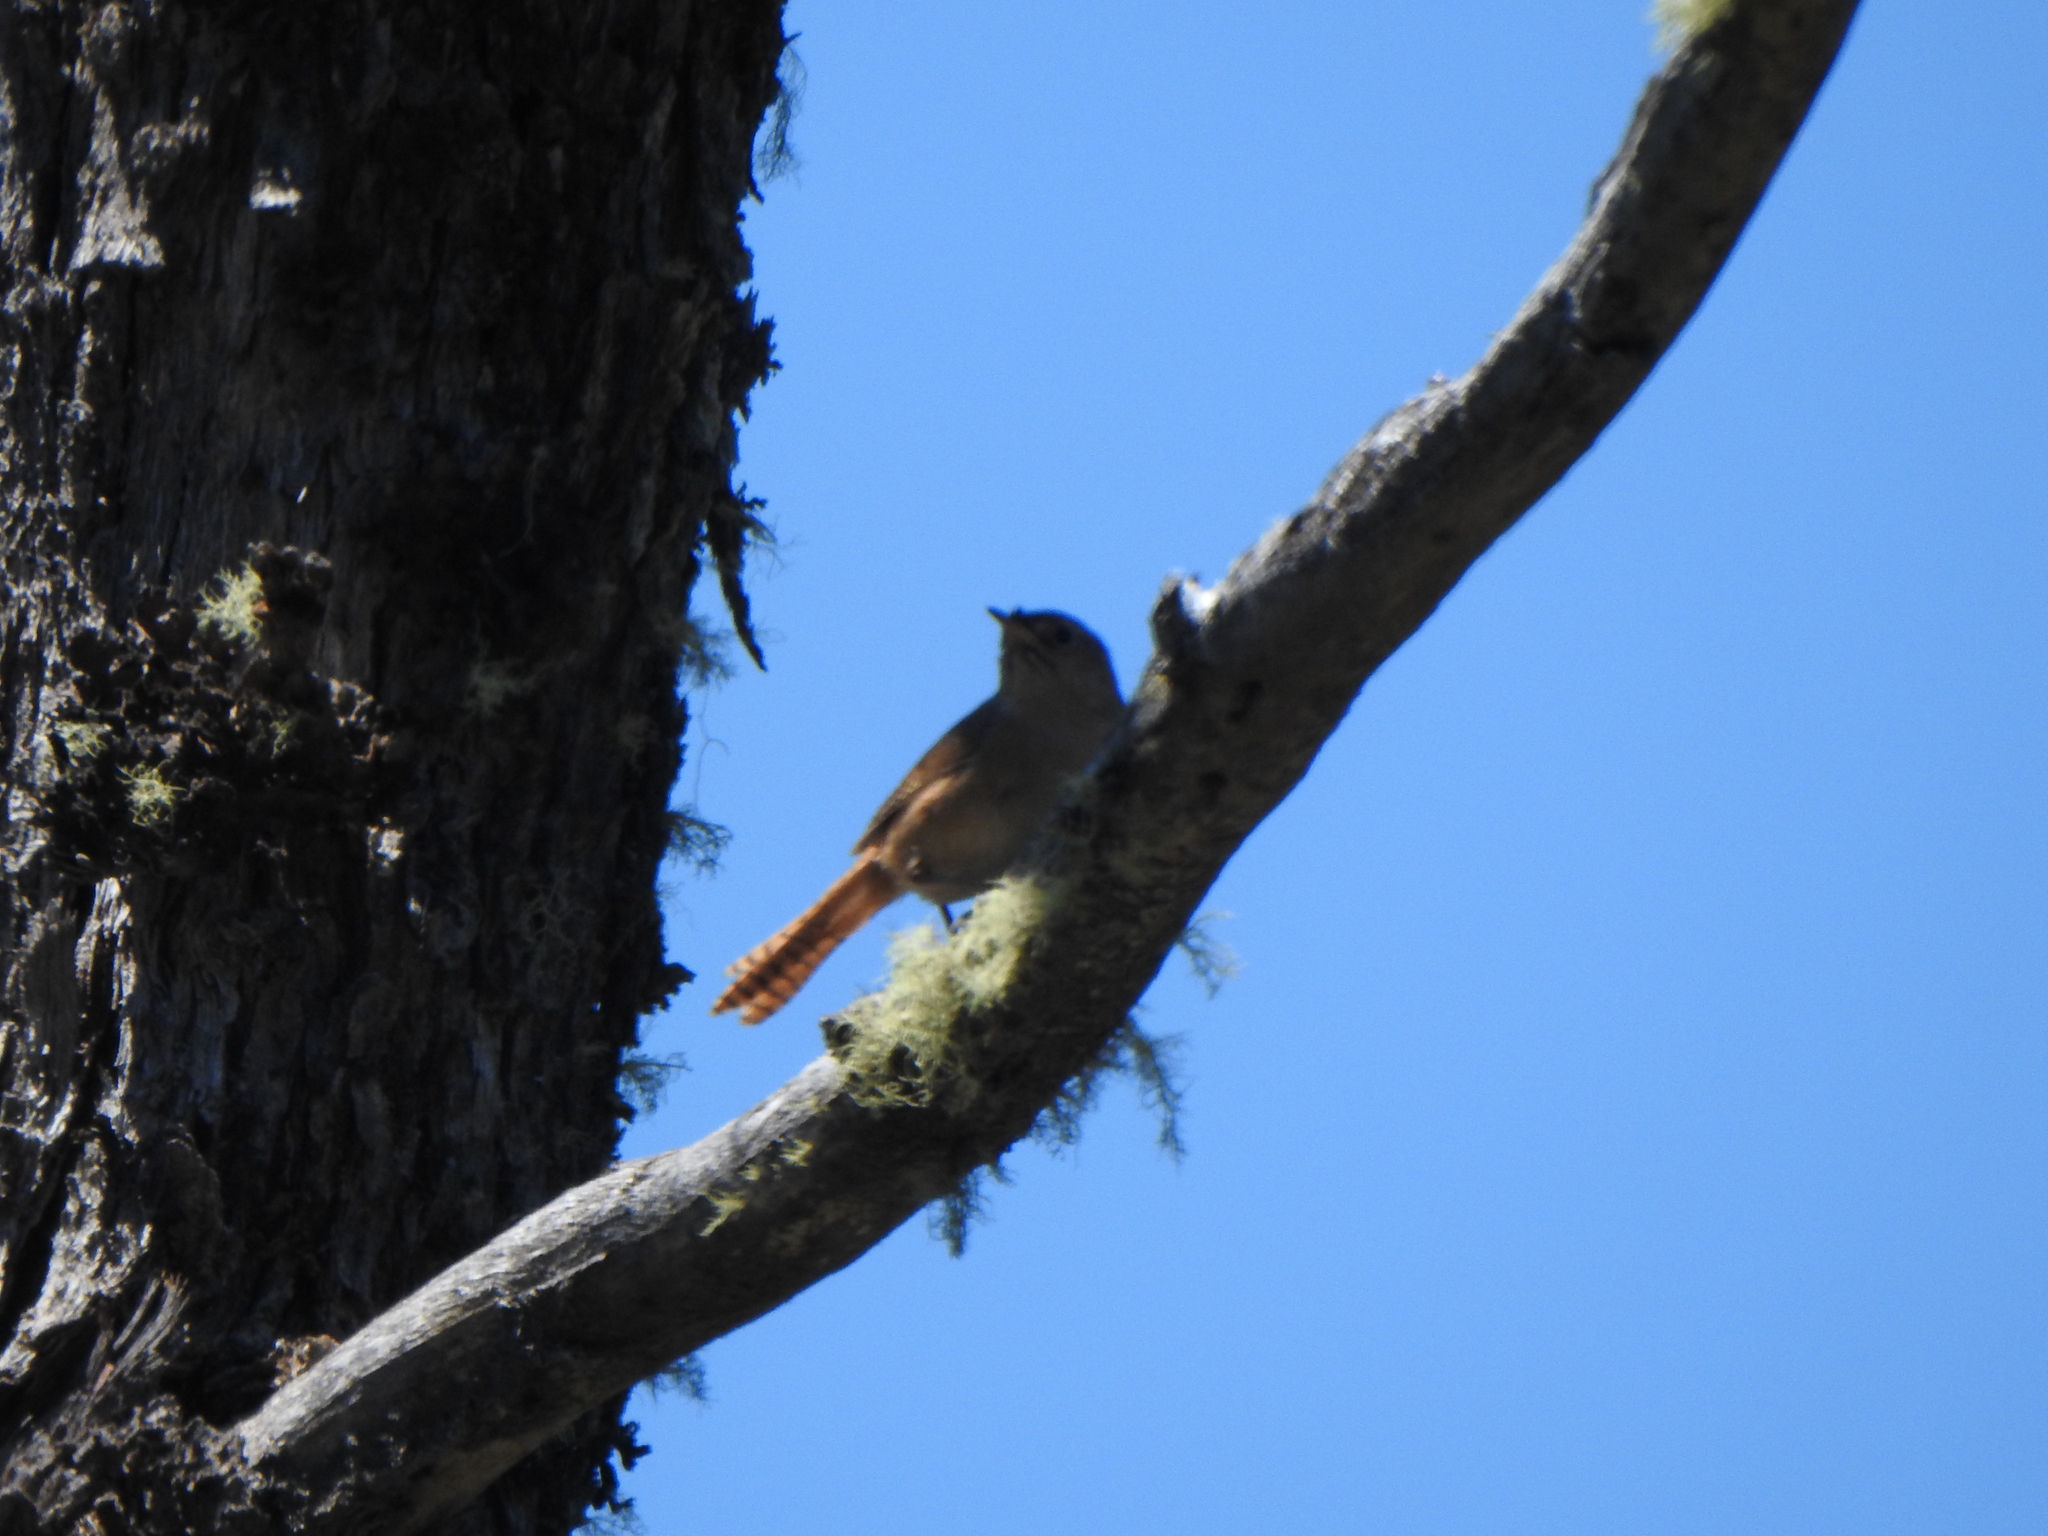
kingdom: Animalia
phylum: Chordata
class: Aves
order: Passeriformes
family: Troglodytidae
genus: Troglodytes
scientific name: Troglodytes aedon
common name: House wren
